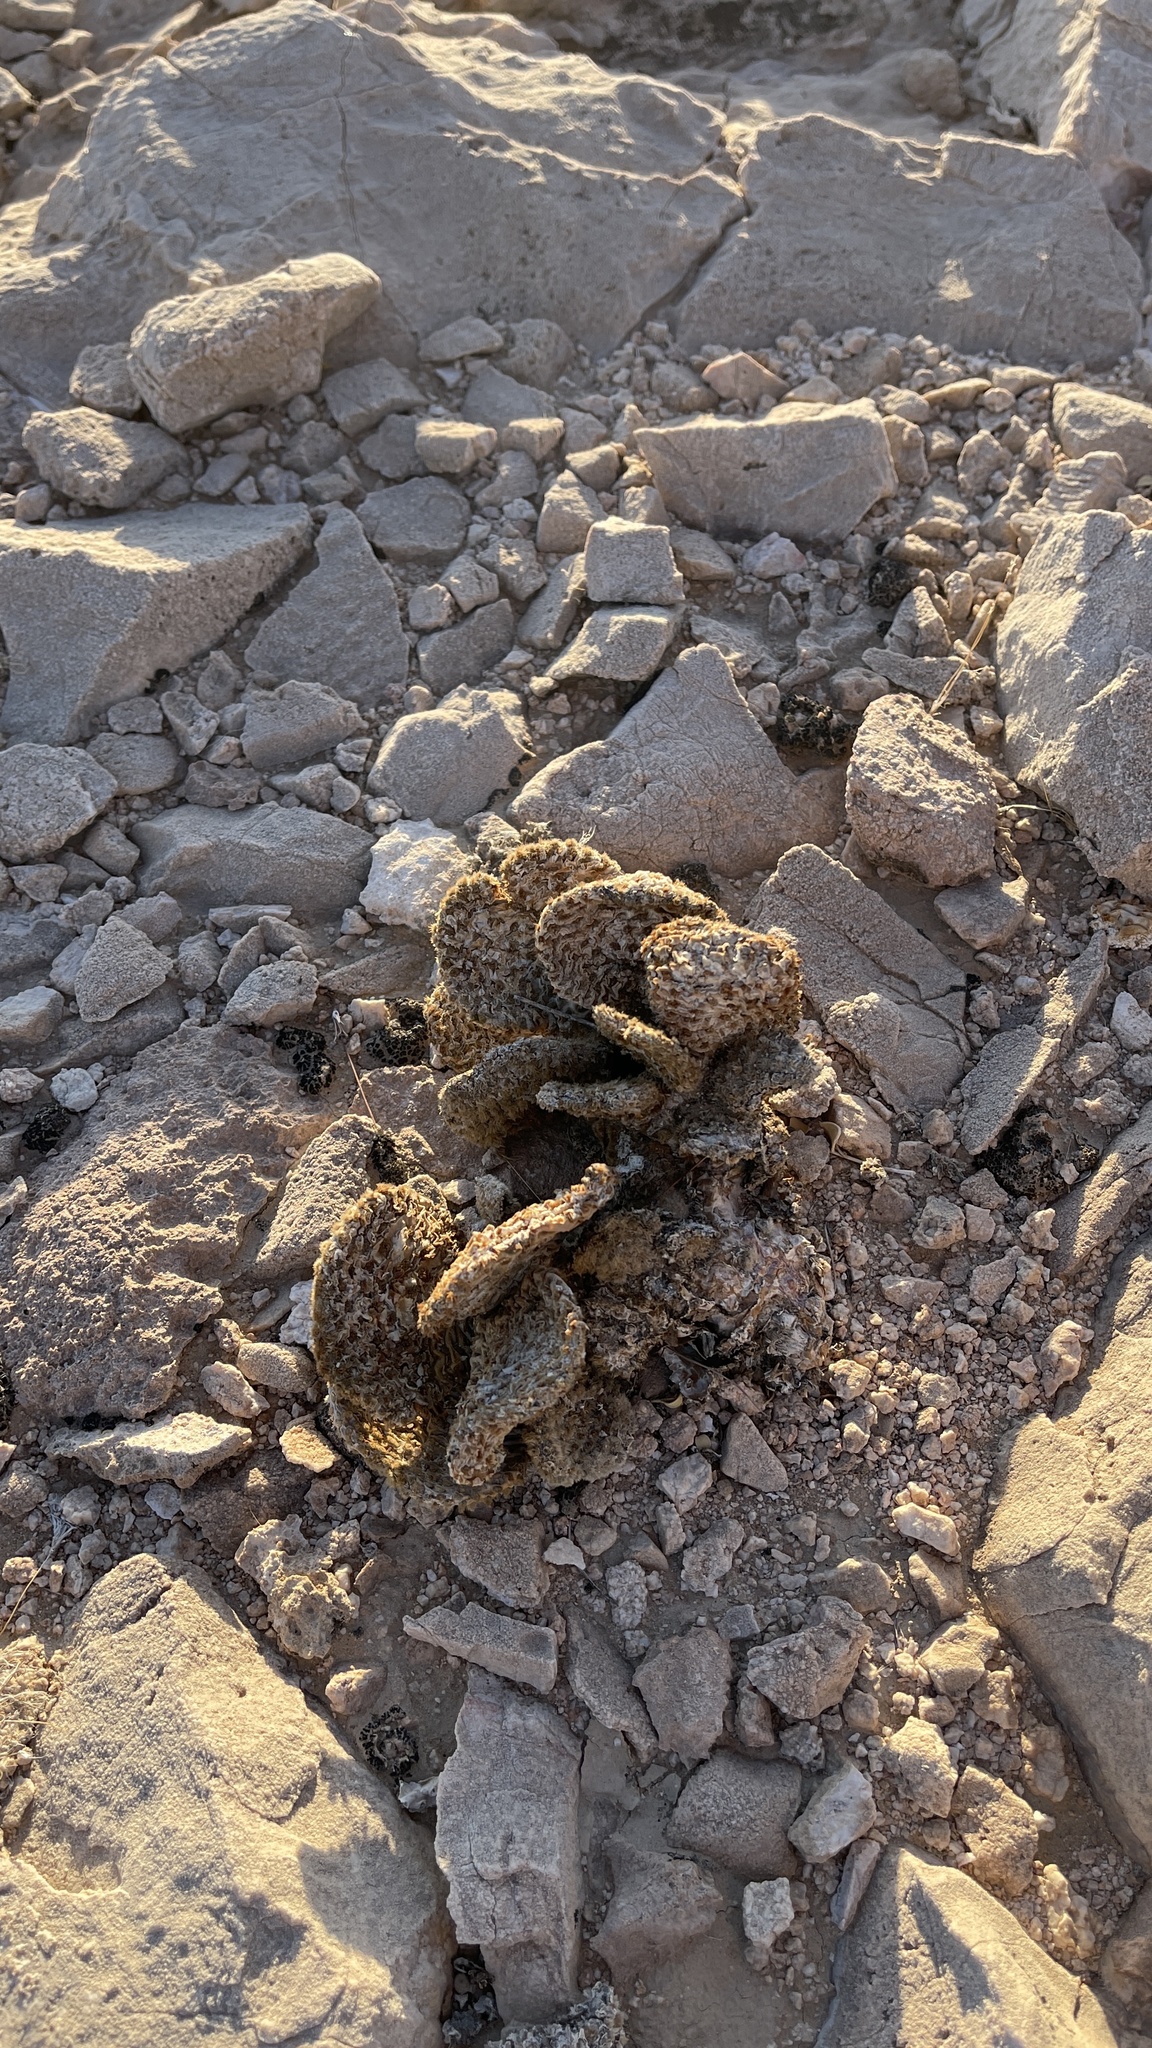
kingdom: Plantae
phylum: Tracheophyta
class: Magnoliopsida
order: Caryophyllales
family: Cactaceae
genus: Opuntia
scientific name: Opuntia basilaris
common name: Beavertail prickly-pear
